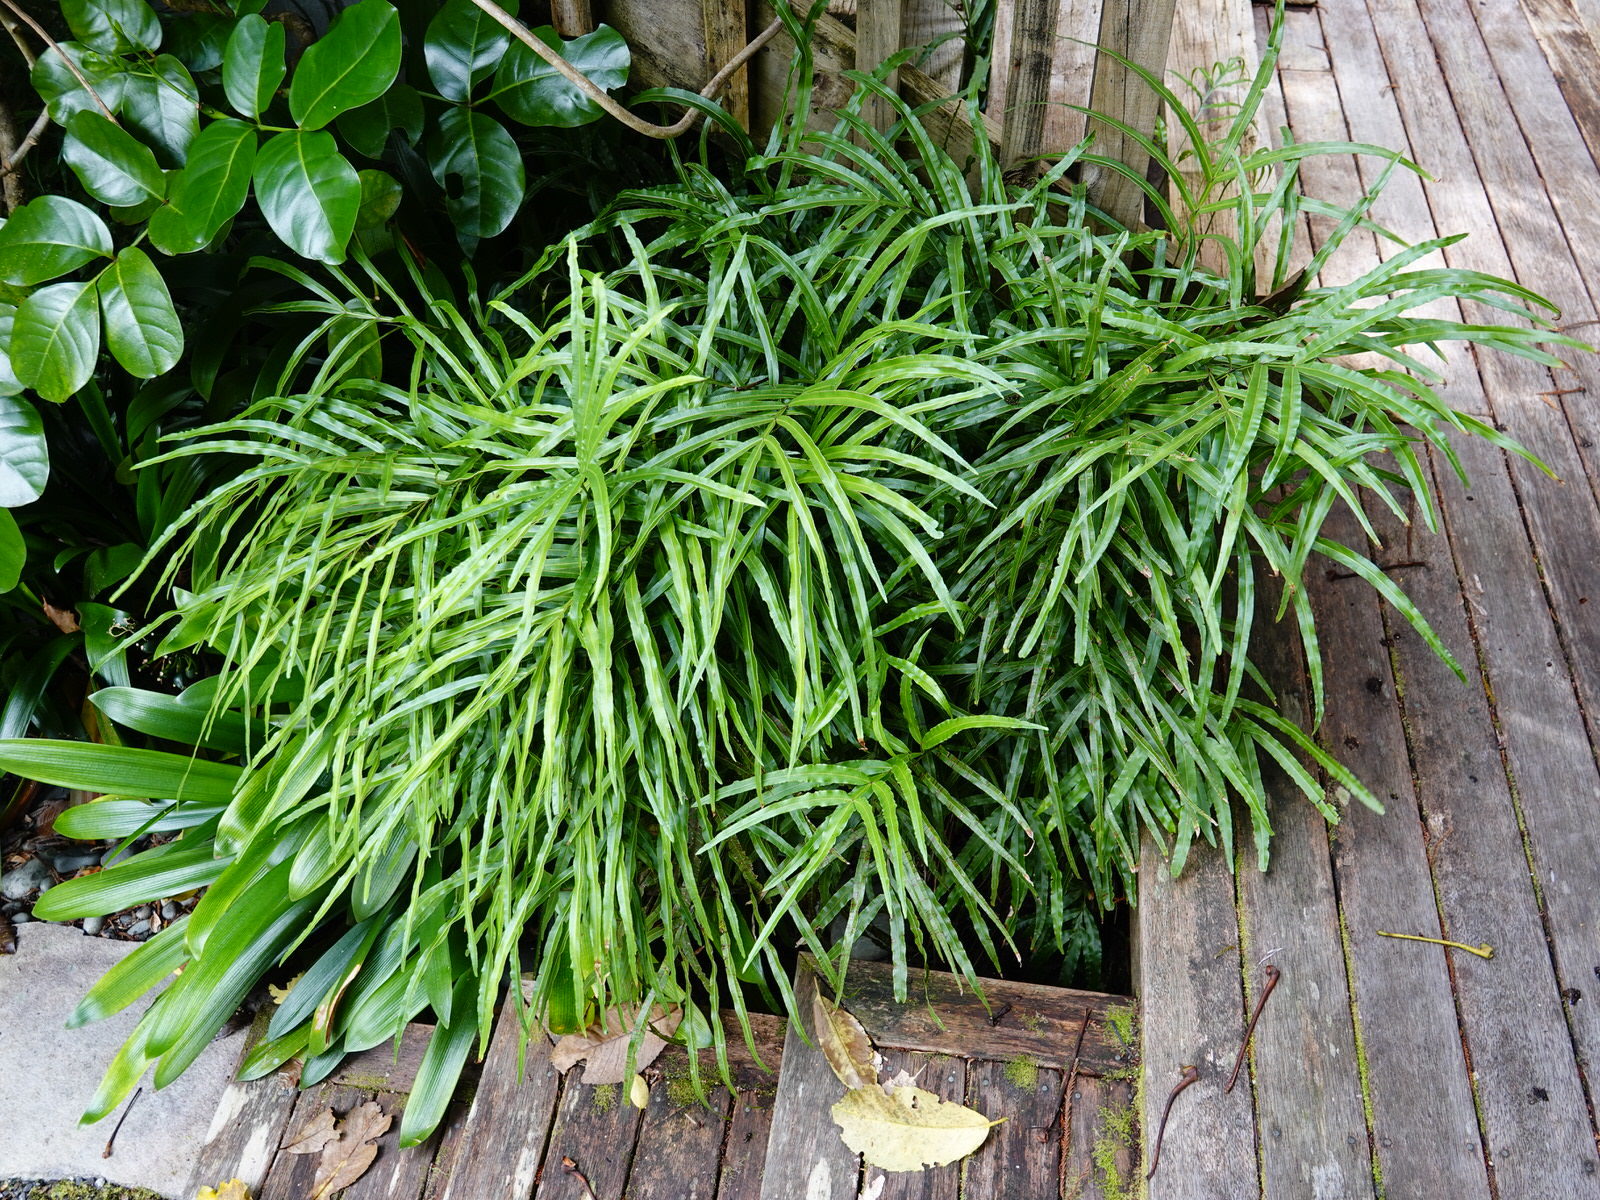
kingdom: Plantae
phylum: Tracheophyta
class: Polypodiopsida
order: Polypodiales
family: Pteridaceae
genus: Pteris
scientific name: Pteris cretica
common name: Ribbon fern
